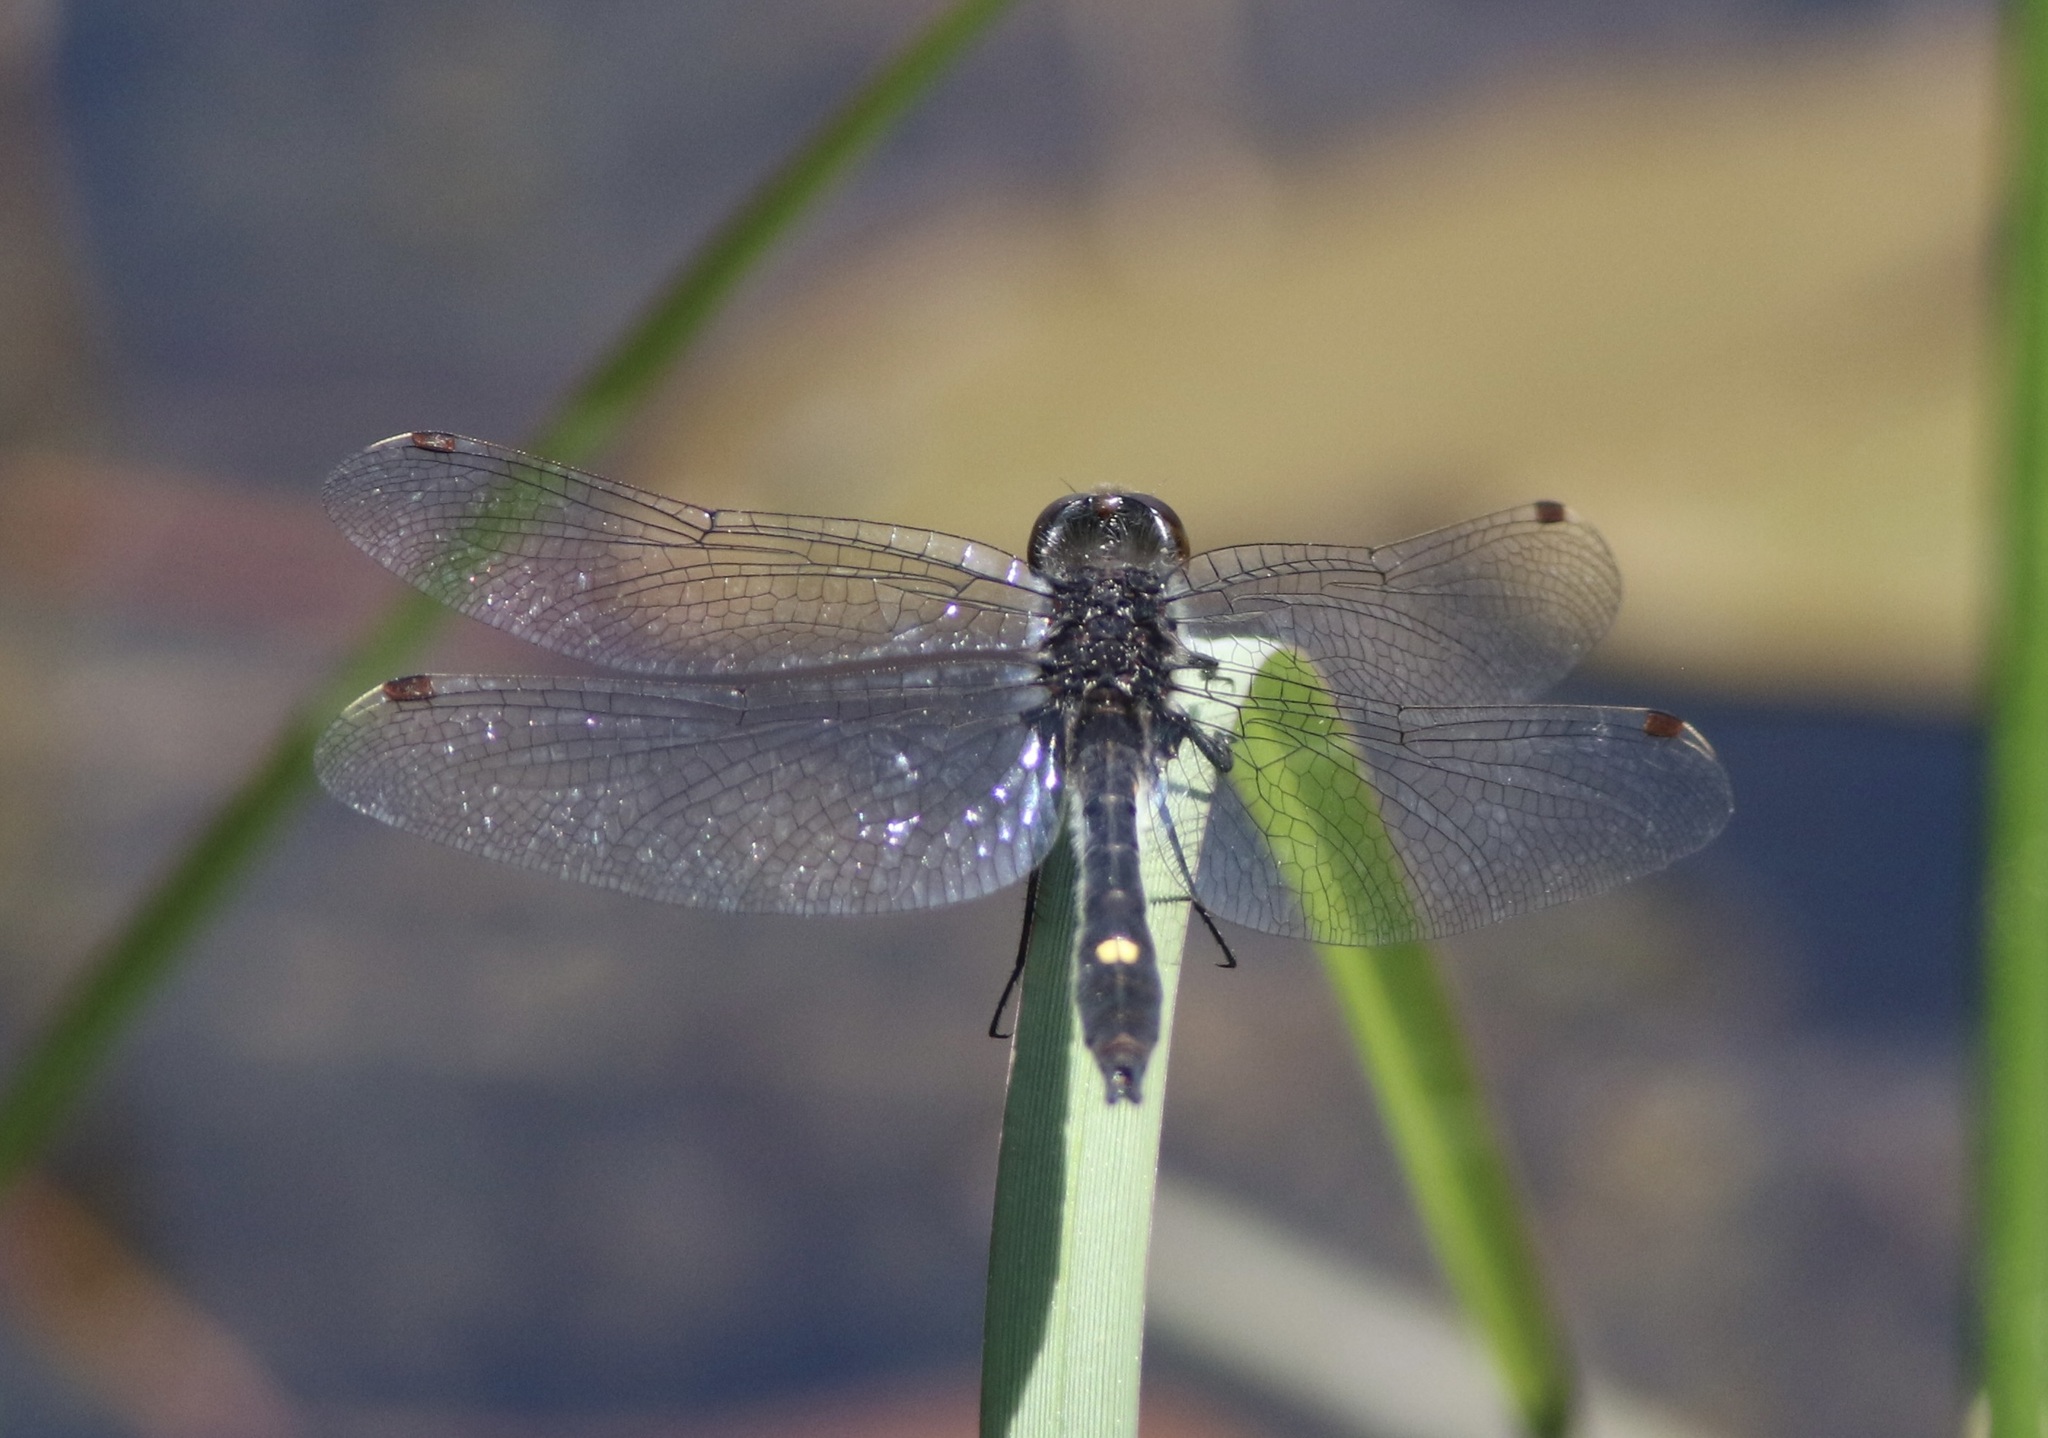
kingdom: Animalia
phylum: Arthropoda
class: Insecta
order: Odonata
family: Libellulidae
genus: Leucorrhinia
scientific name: Leucorrhinia intacta
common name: Dot-tailed whiteface
